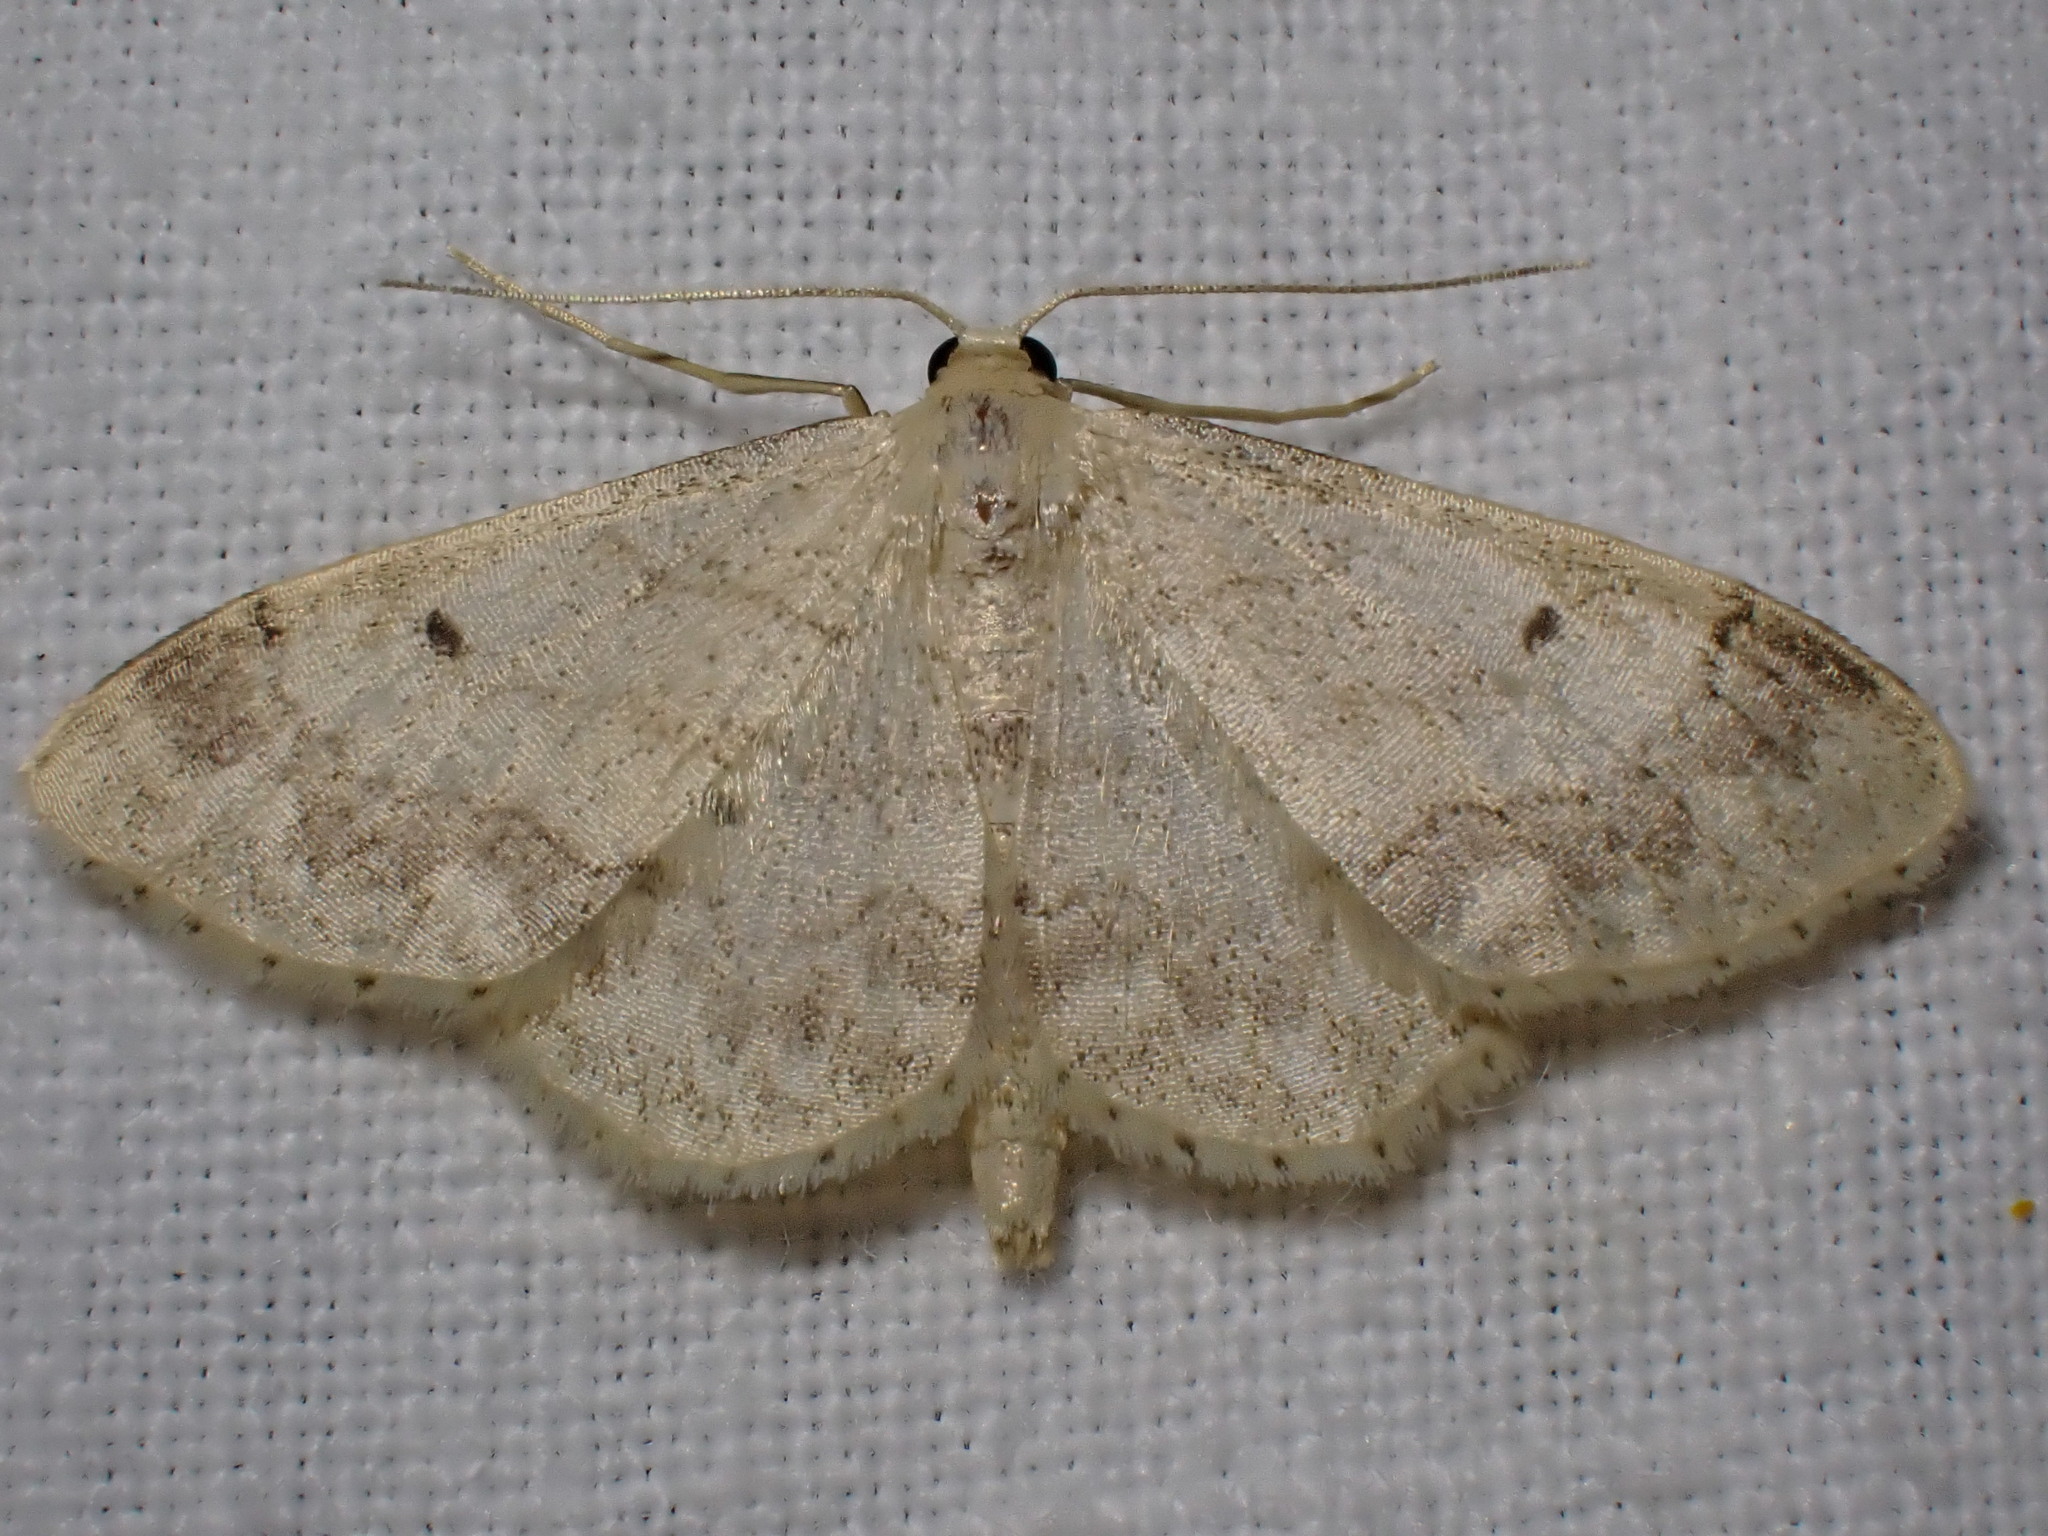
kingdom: Animalia
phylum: Arthropoda
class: Insecta
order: Lepidoptera
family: Geometridae
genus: Idaea
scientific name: Idaea biselata
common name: Small fan-footed wave
